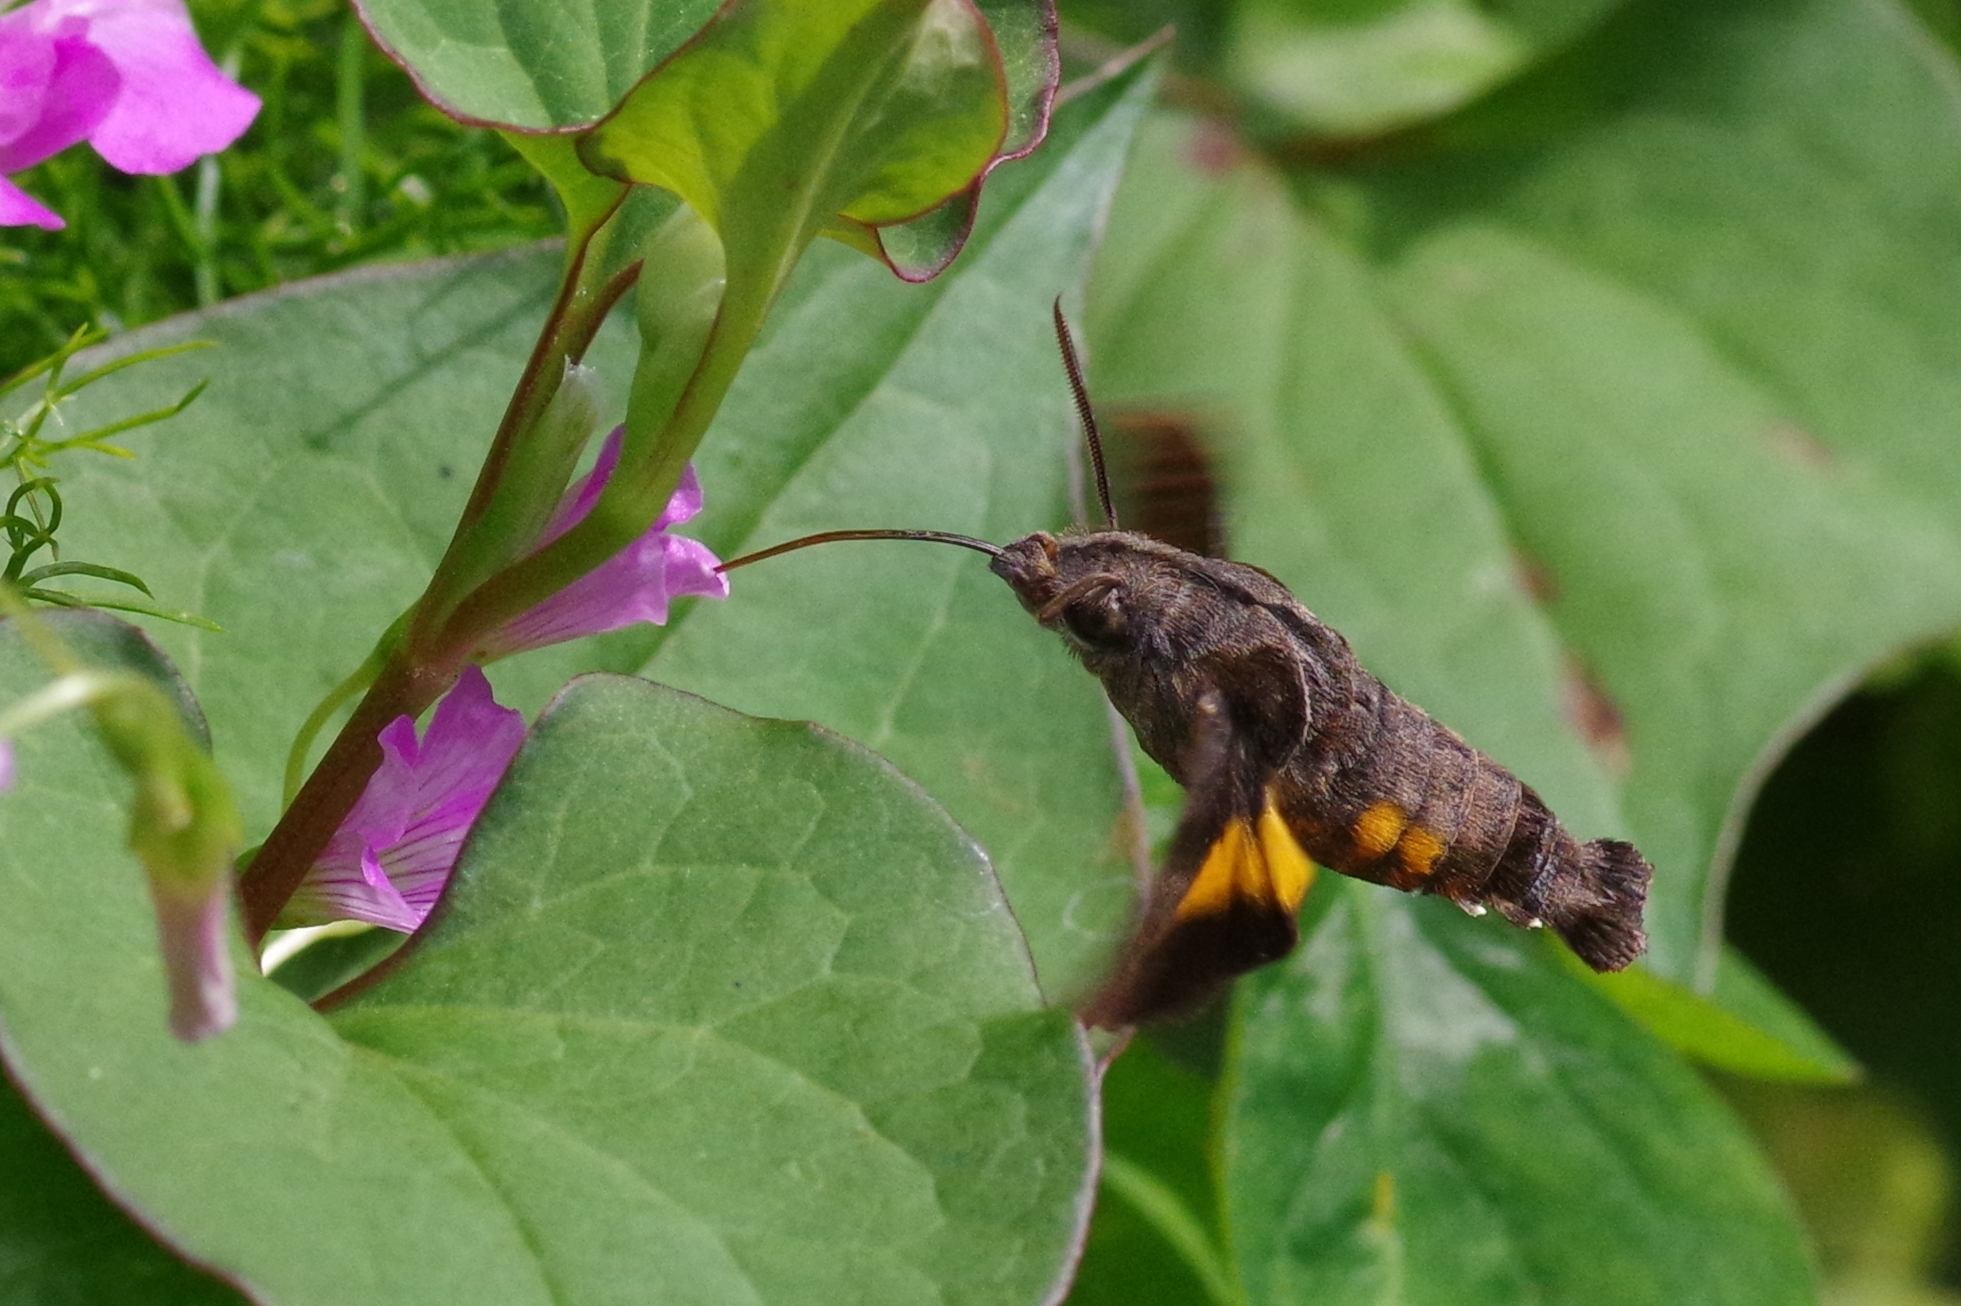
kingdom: Animalia
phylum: Arthropoda
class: Insecta
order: Lepidoptera
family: Sphingidae
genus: Macroglossum
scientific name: Macroglossum pyrrhosticta
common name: Hummingbird hawk moth
